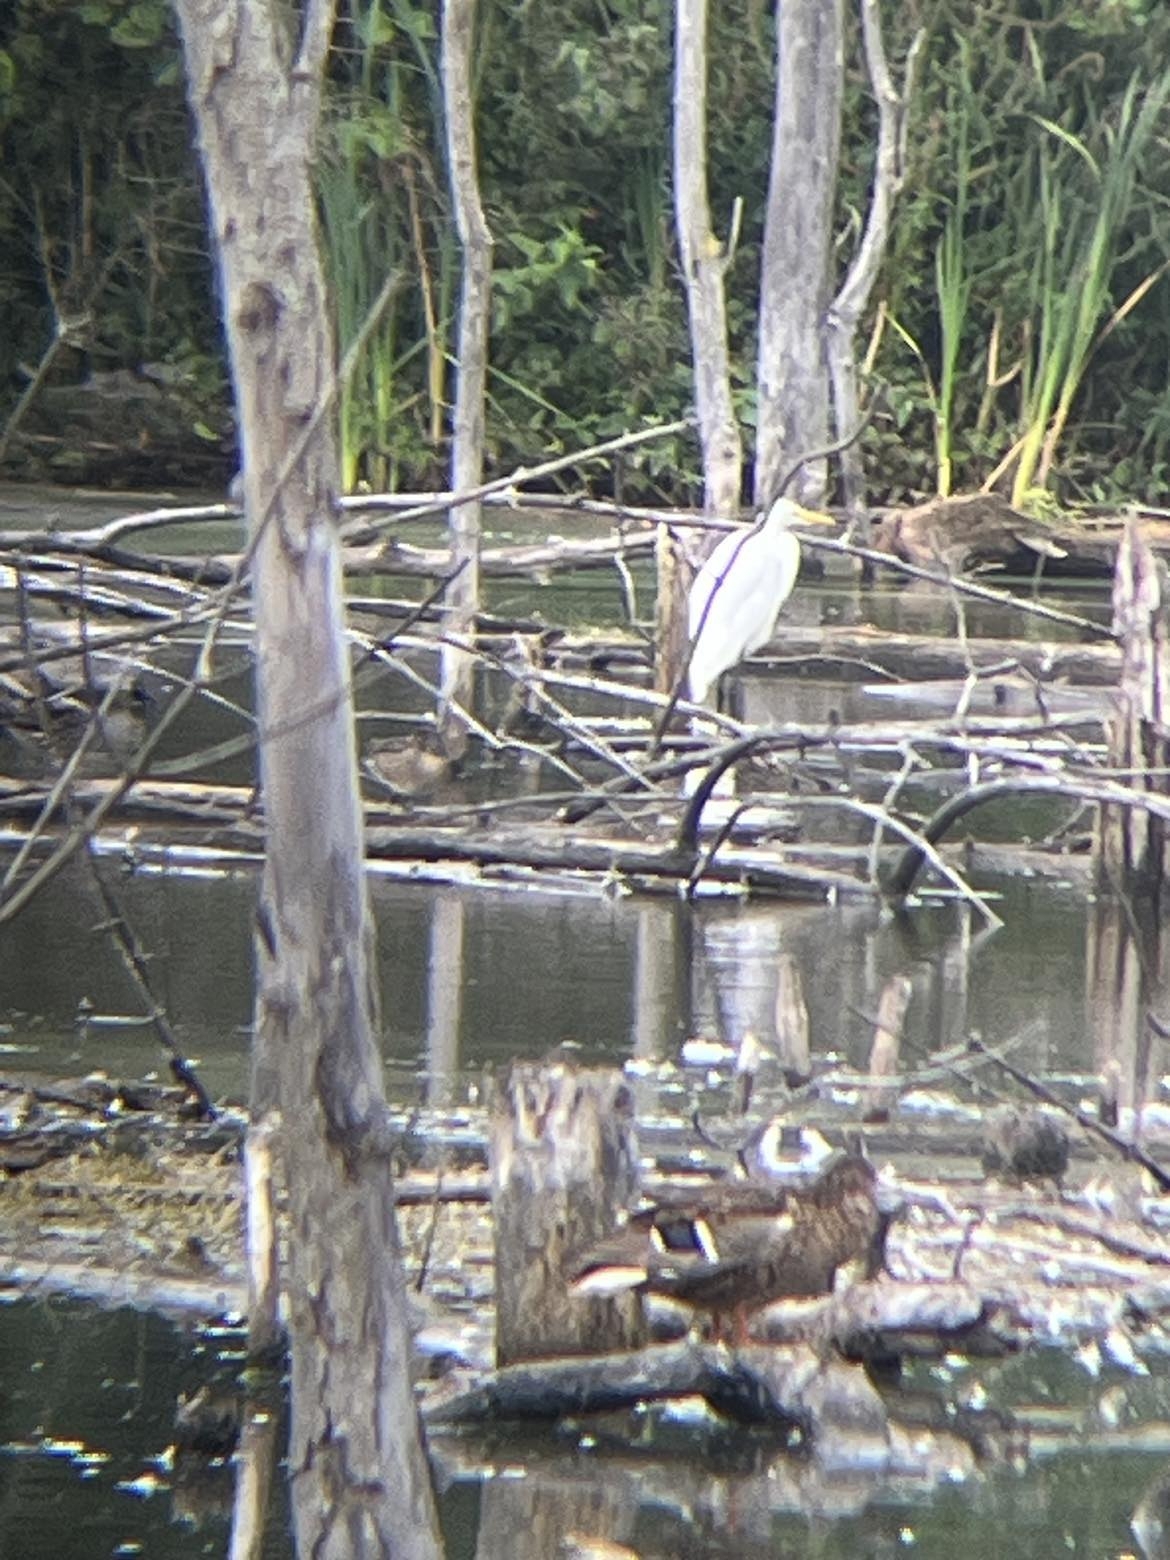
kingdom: Animalia
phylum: Chordata
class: Aves
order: Pelecaniformes
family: Ardeidae
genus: Ardea
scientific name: Ardea alba
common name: Great egret
